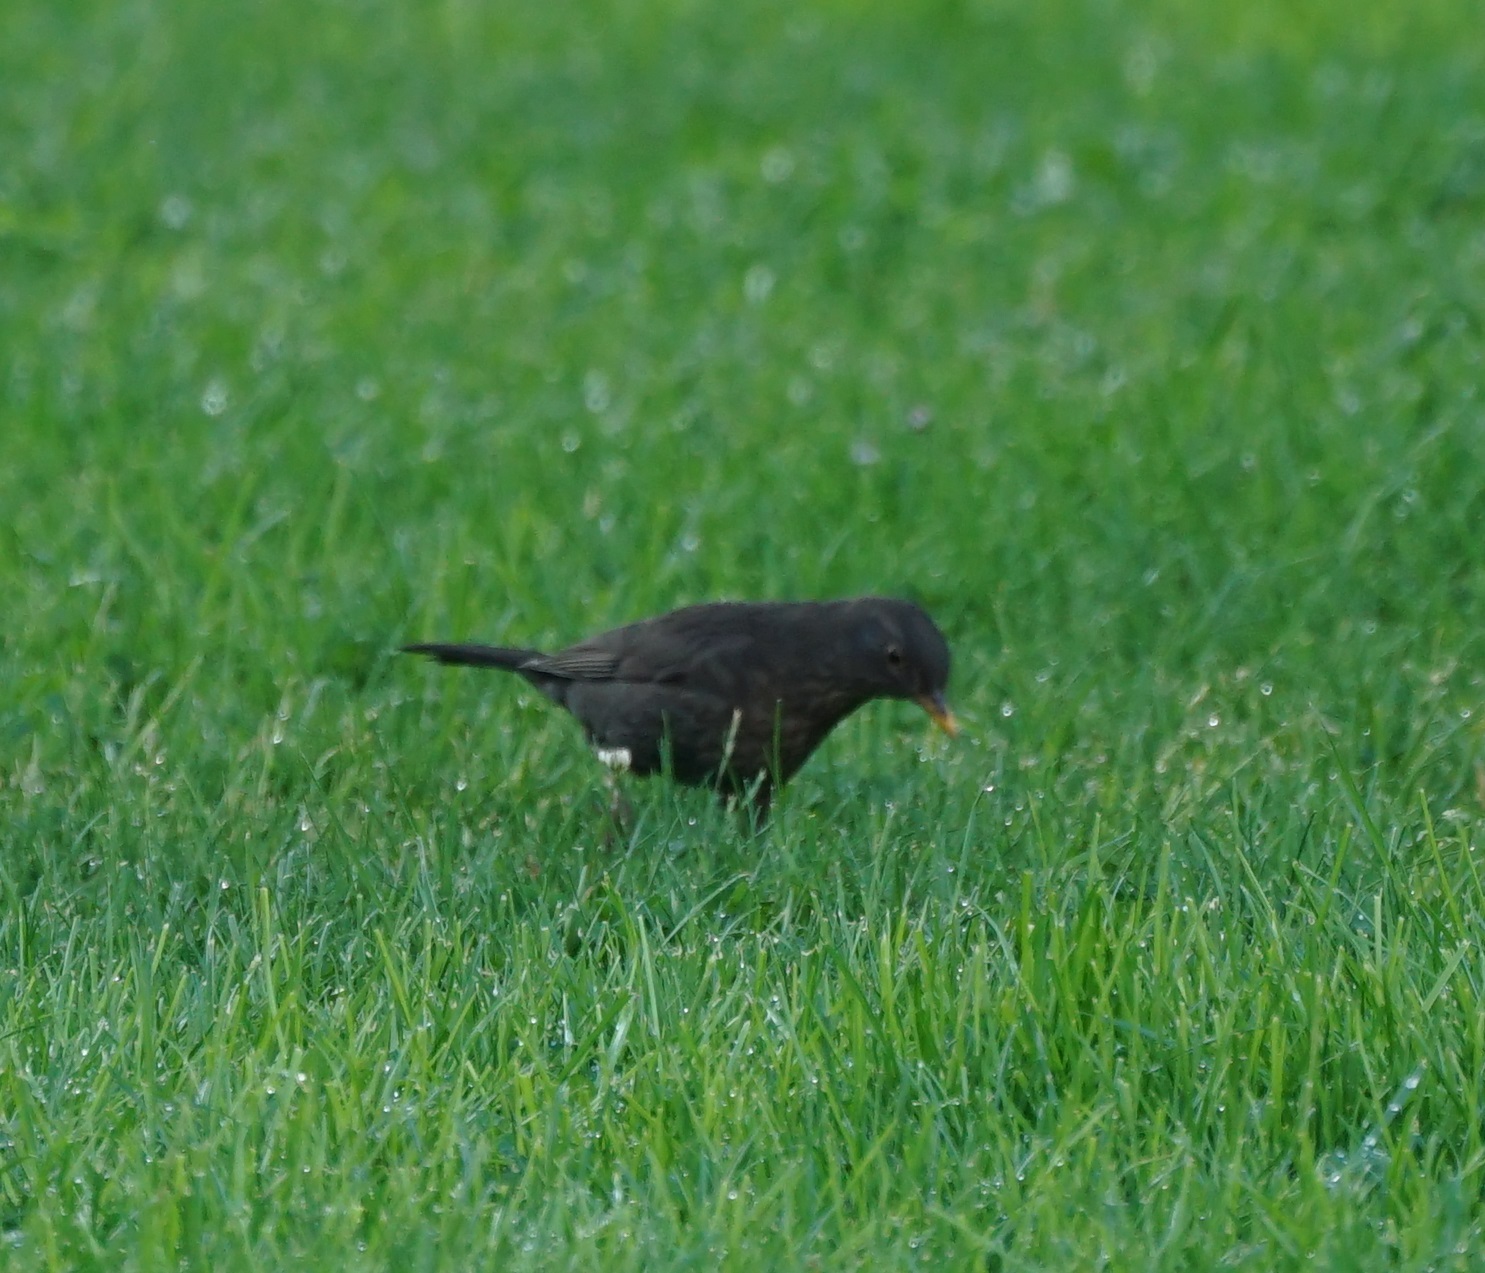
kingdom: Animalia
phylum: Chordata
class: Aves
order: Passeriformes
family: Turdidae
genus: Turdus
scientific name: Turdus merula
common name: Common blackbird
